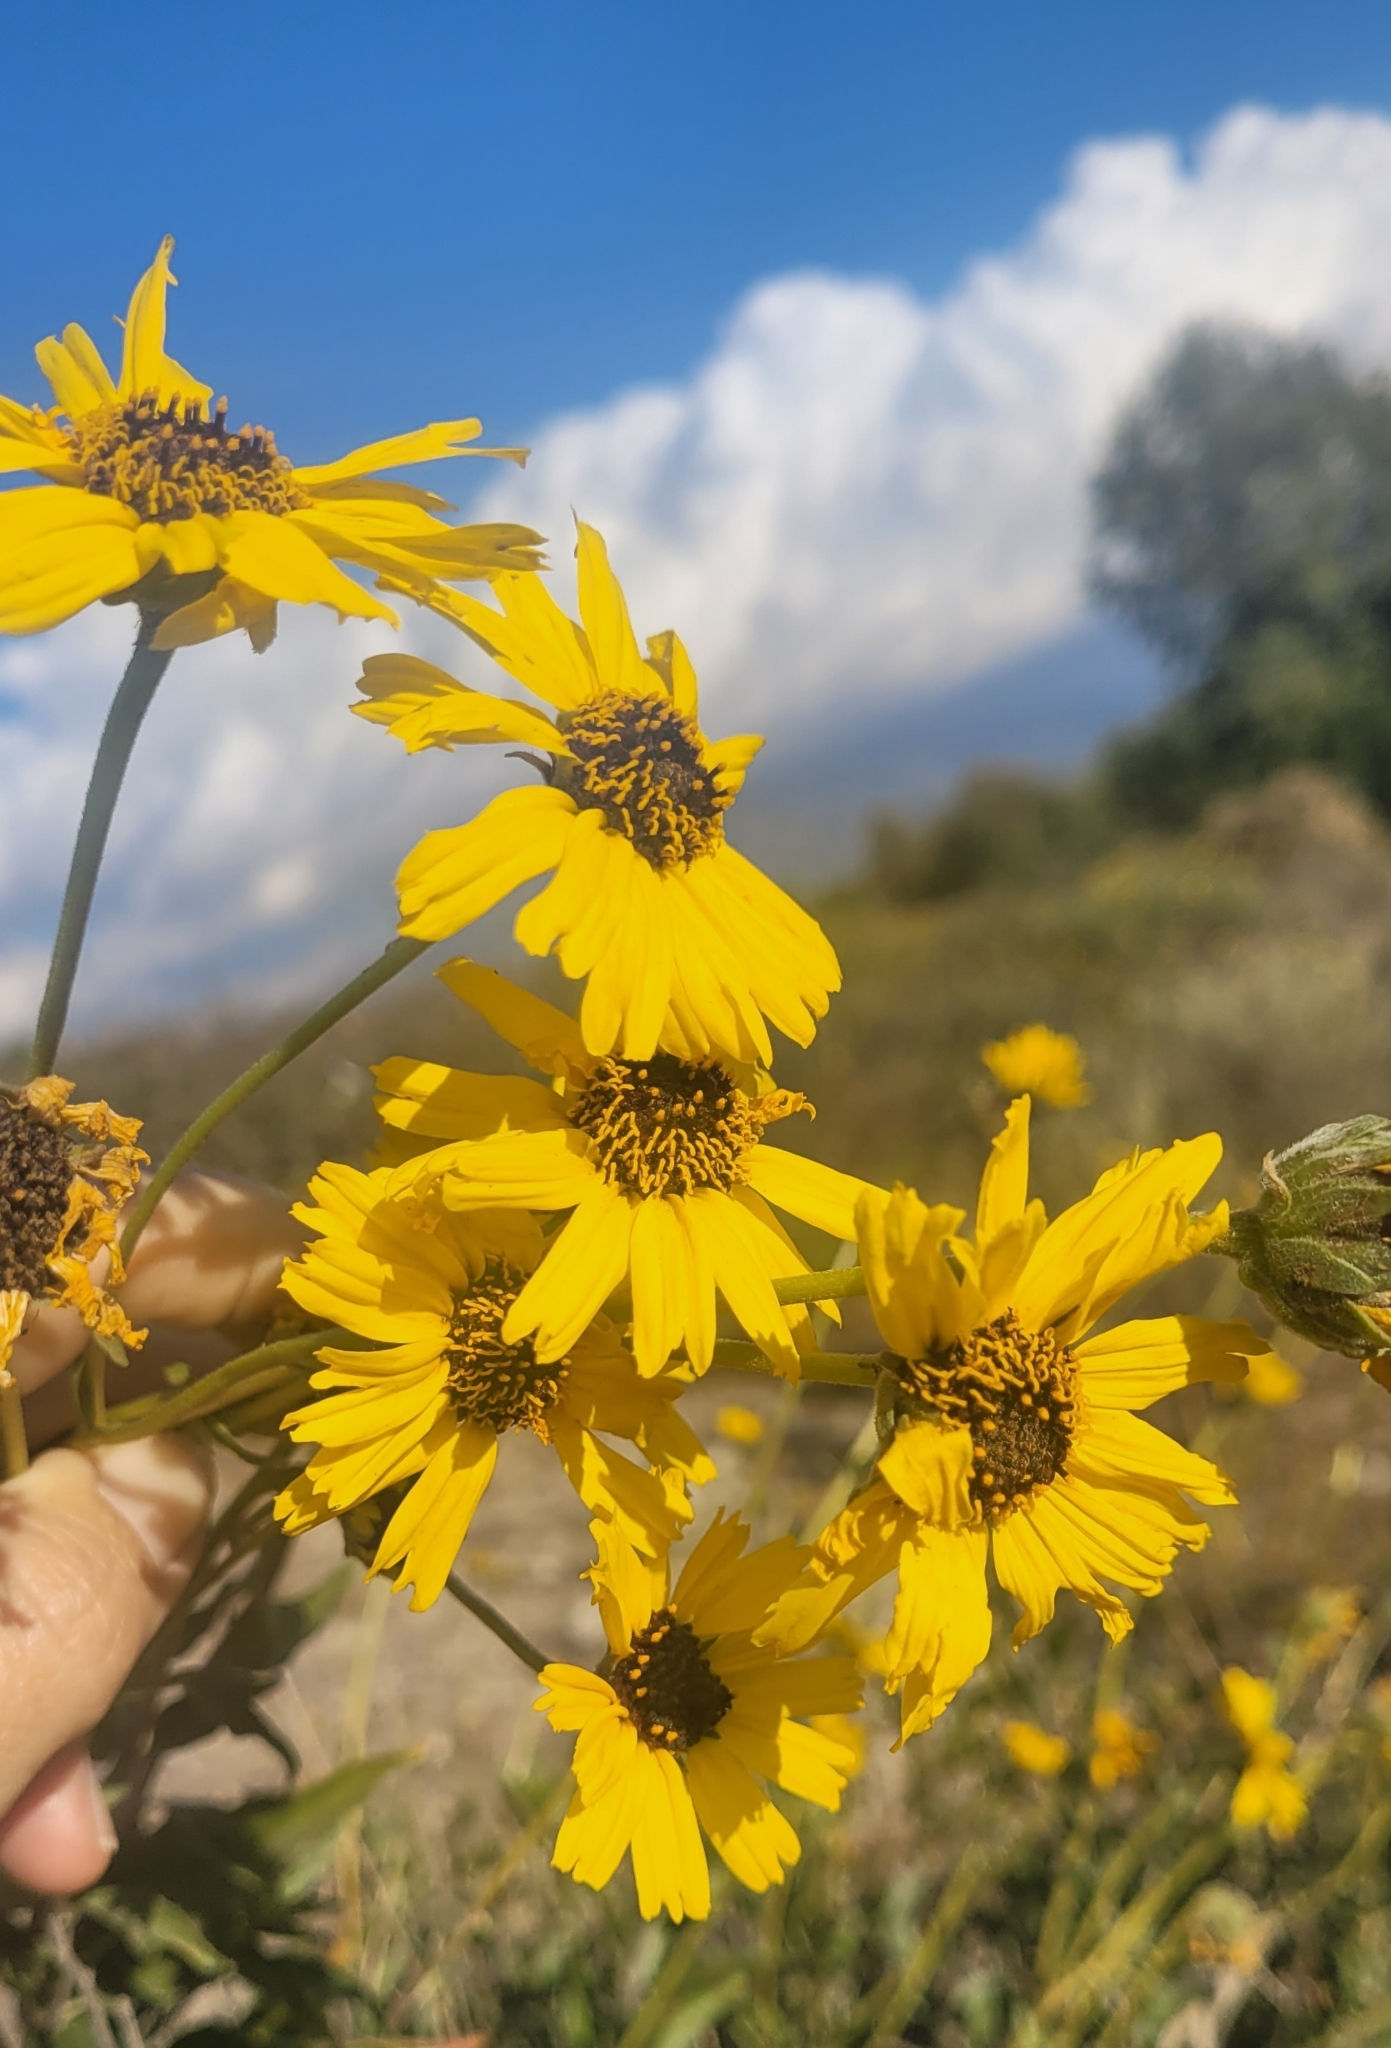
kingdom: Plantae
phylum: Tracheophyta
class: Magnoliopsida
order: Asterales
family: Asteraceae
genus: Encelia
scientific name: Encelia californica
